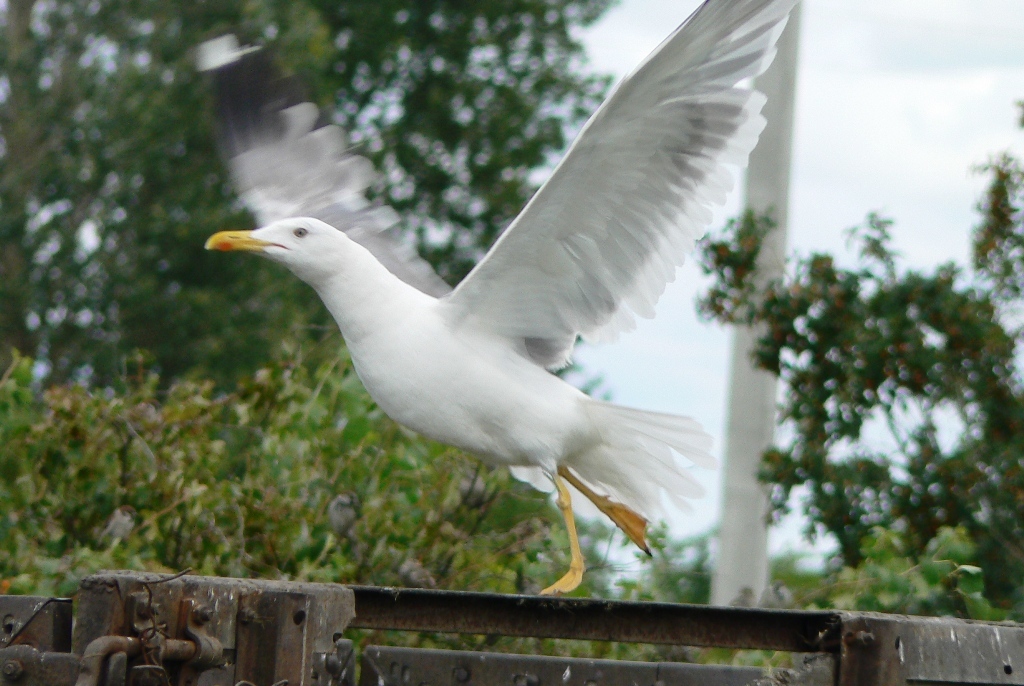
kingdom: Animalia
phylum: Chordata
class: Aves
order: Charadriiformes
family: Laridae
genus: Larus
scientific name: Larus fuscus
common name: Lesser black-backed gull
